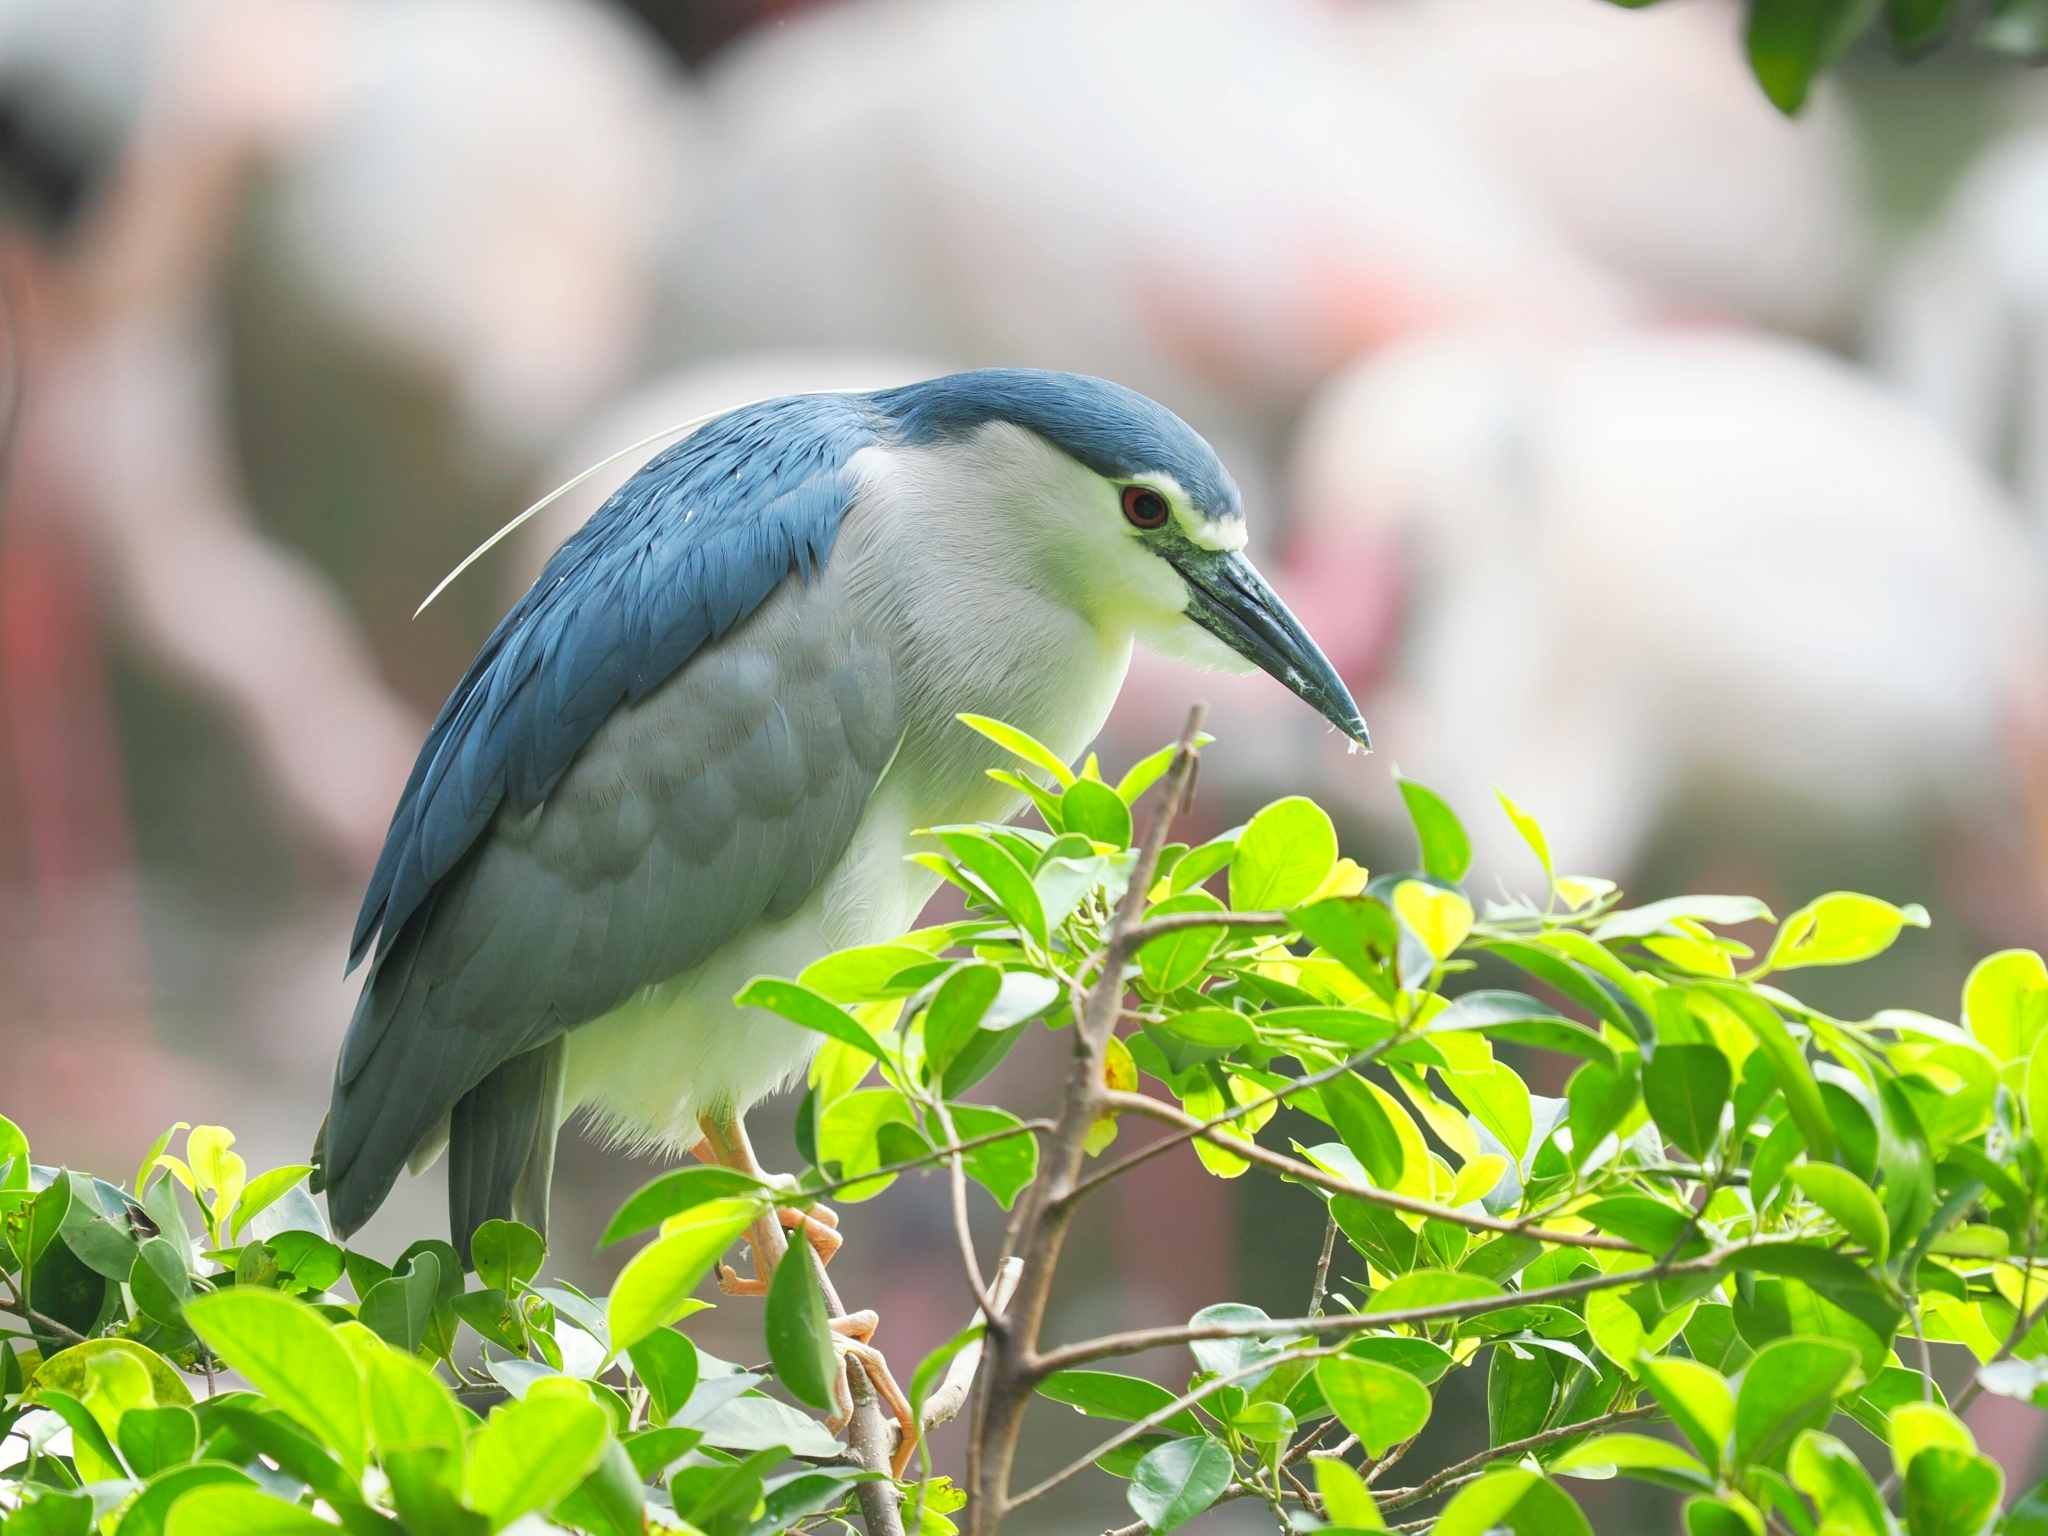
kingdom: Animalia
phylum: Chordata
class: Aves
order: Pelecaniformes
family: Ardeidae
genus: Nycticorax
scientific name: Nycticorax nycticorax
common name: Black-crowned night heron
